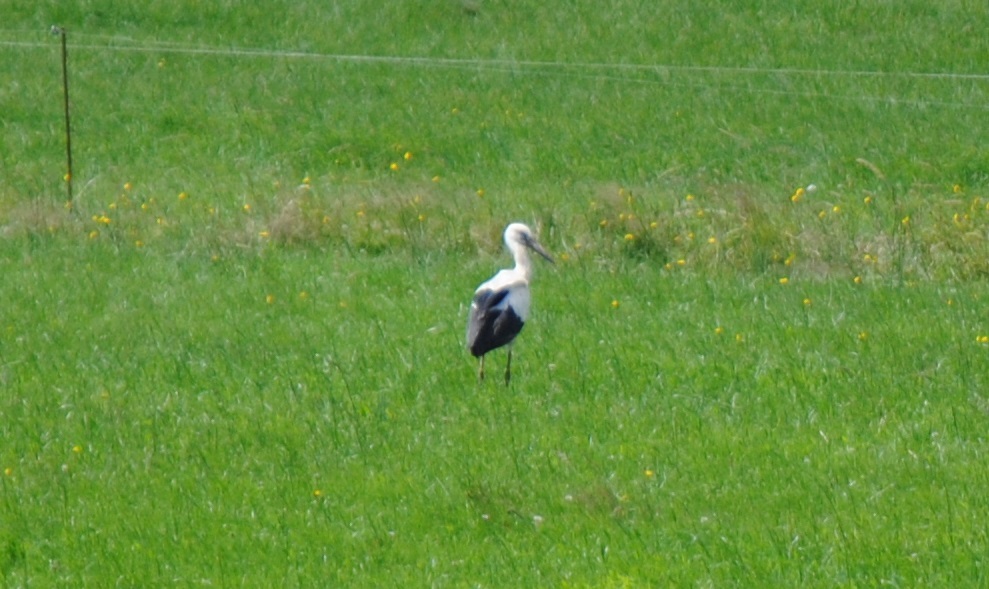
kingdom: Animalia
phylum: Chordata
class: Aves
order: Ciconiiformes
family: Ciconiidae
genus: Ciconia
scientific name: Ciconia ciconia
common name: White stork
